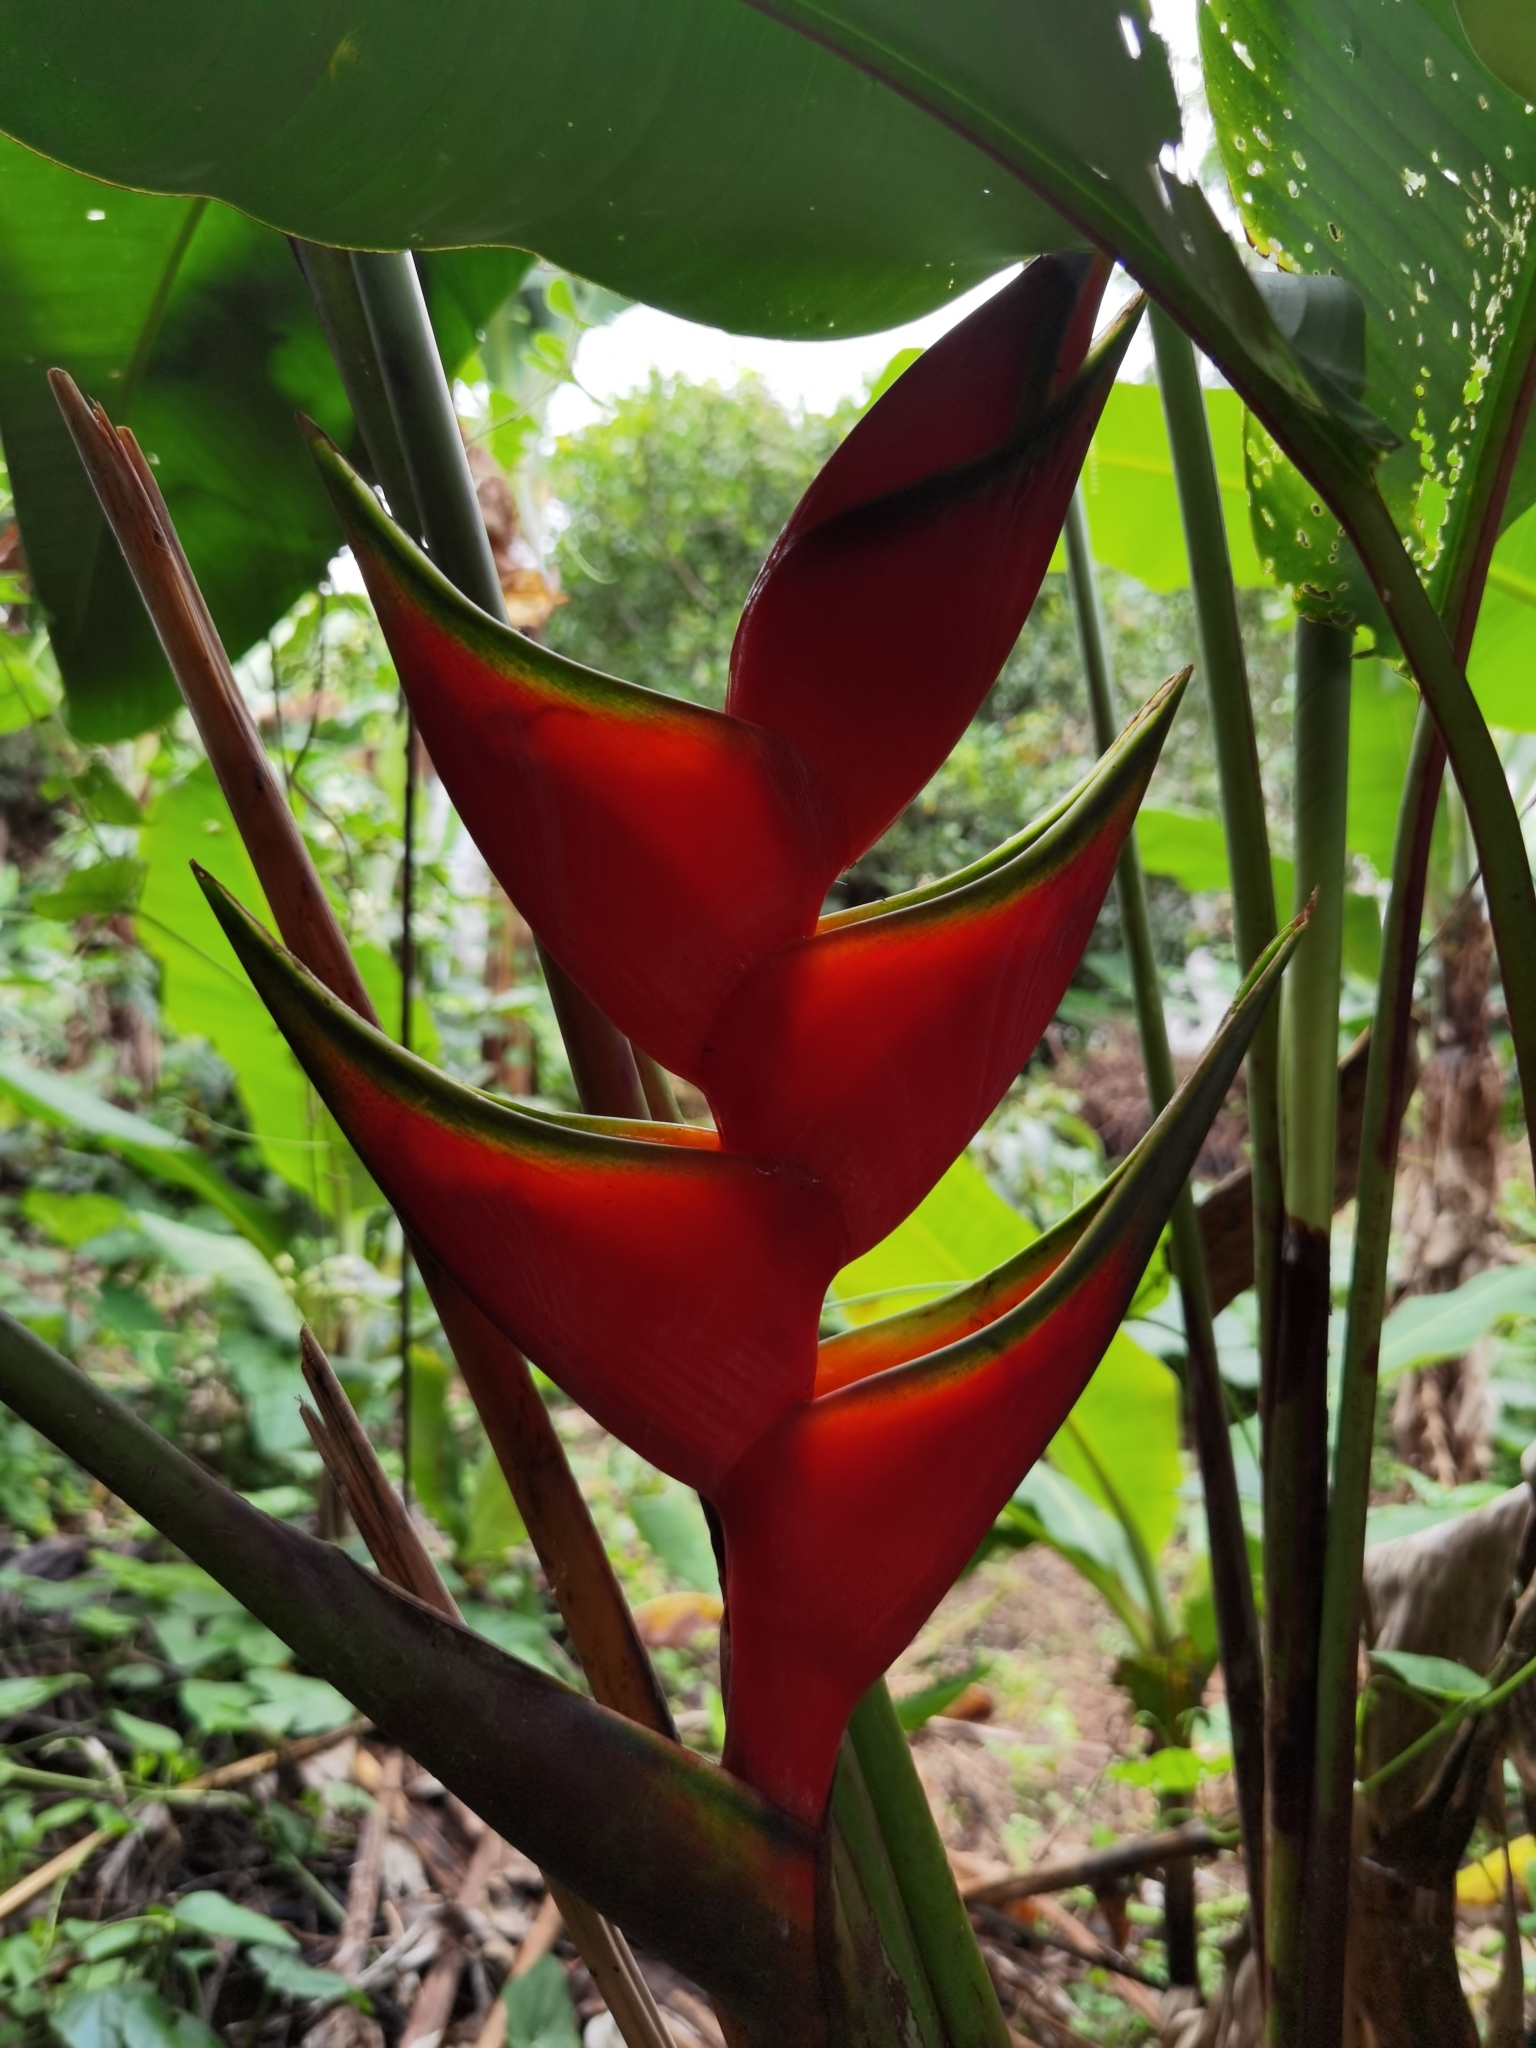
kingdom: Plantae
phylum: Tracheophyta
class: Liliopsida
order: Zingiberales
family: Heliconiaceae
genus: Heliconia
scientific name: Heliconia bihai
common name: Macaw flower
